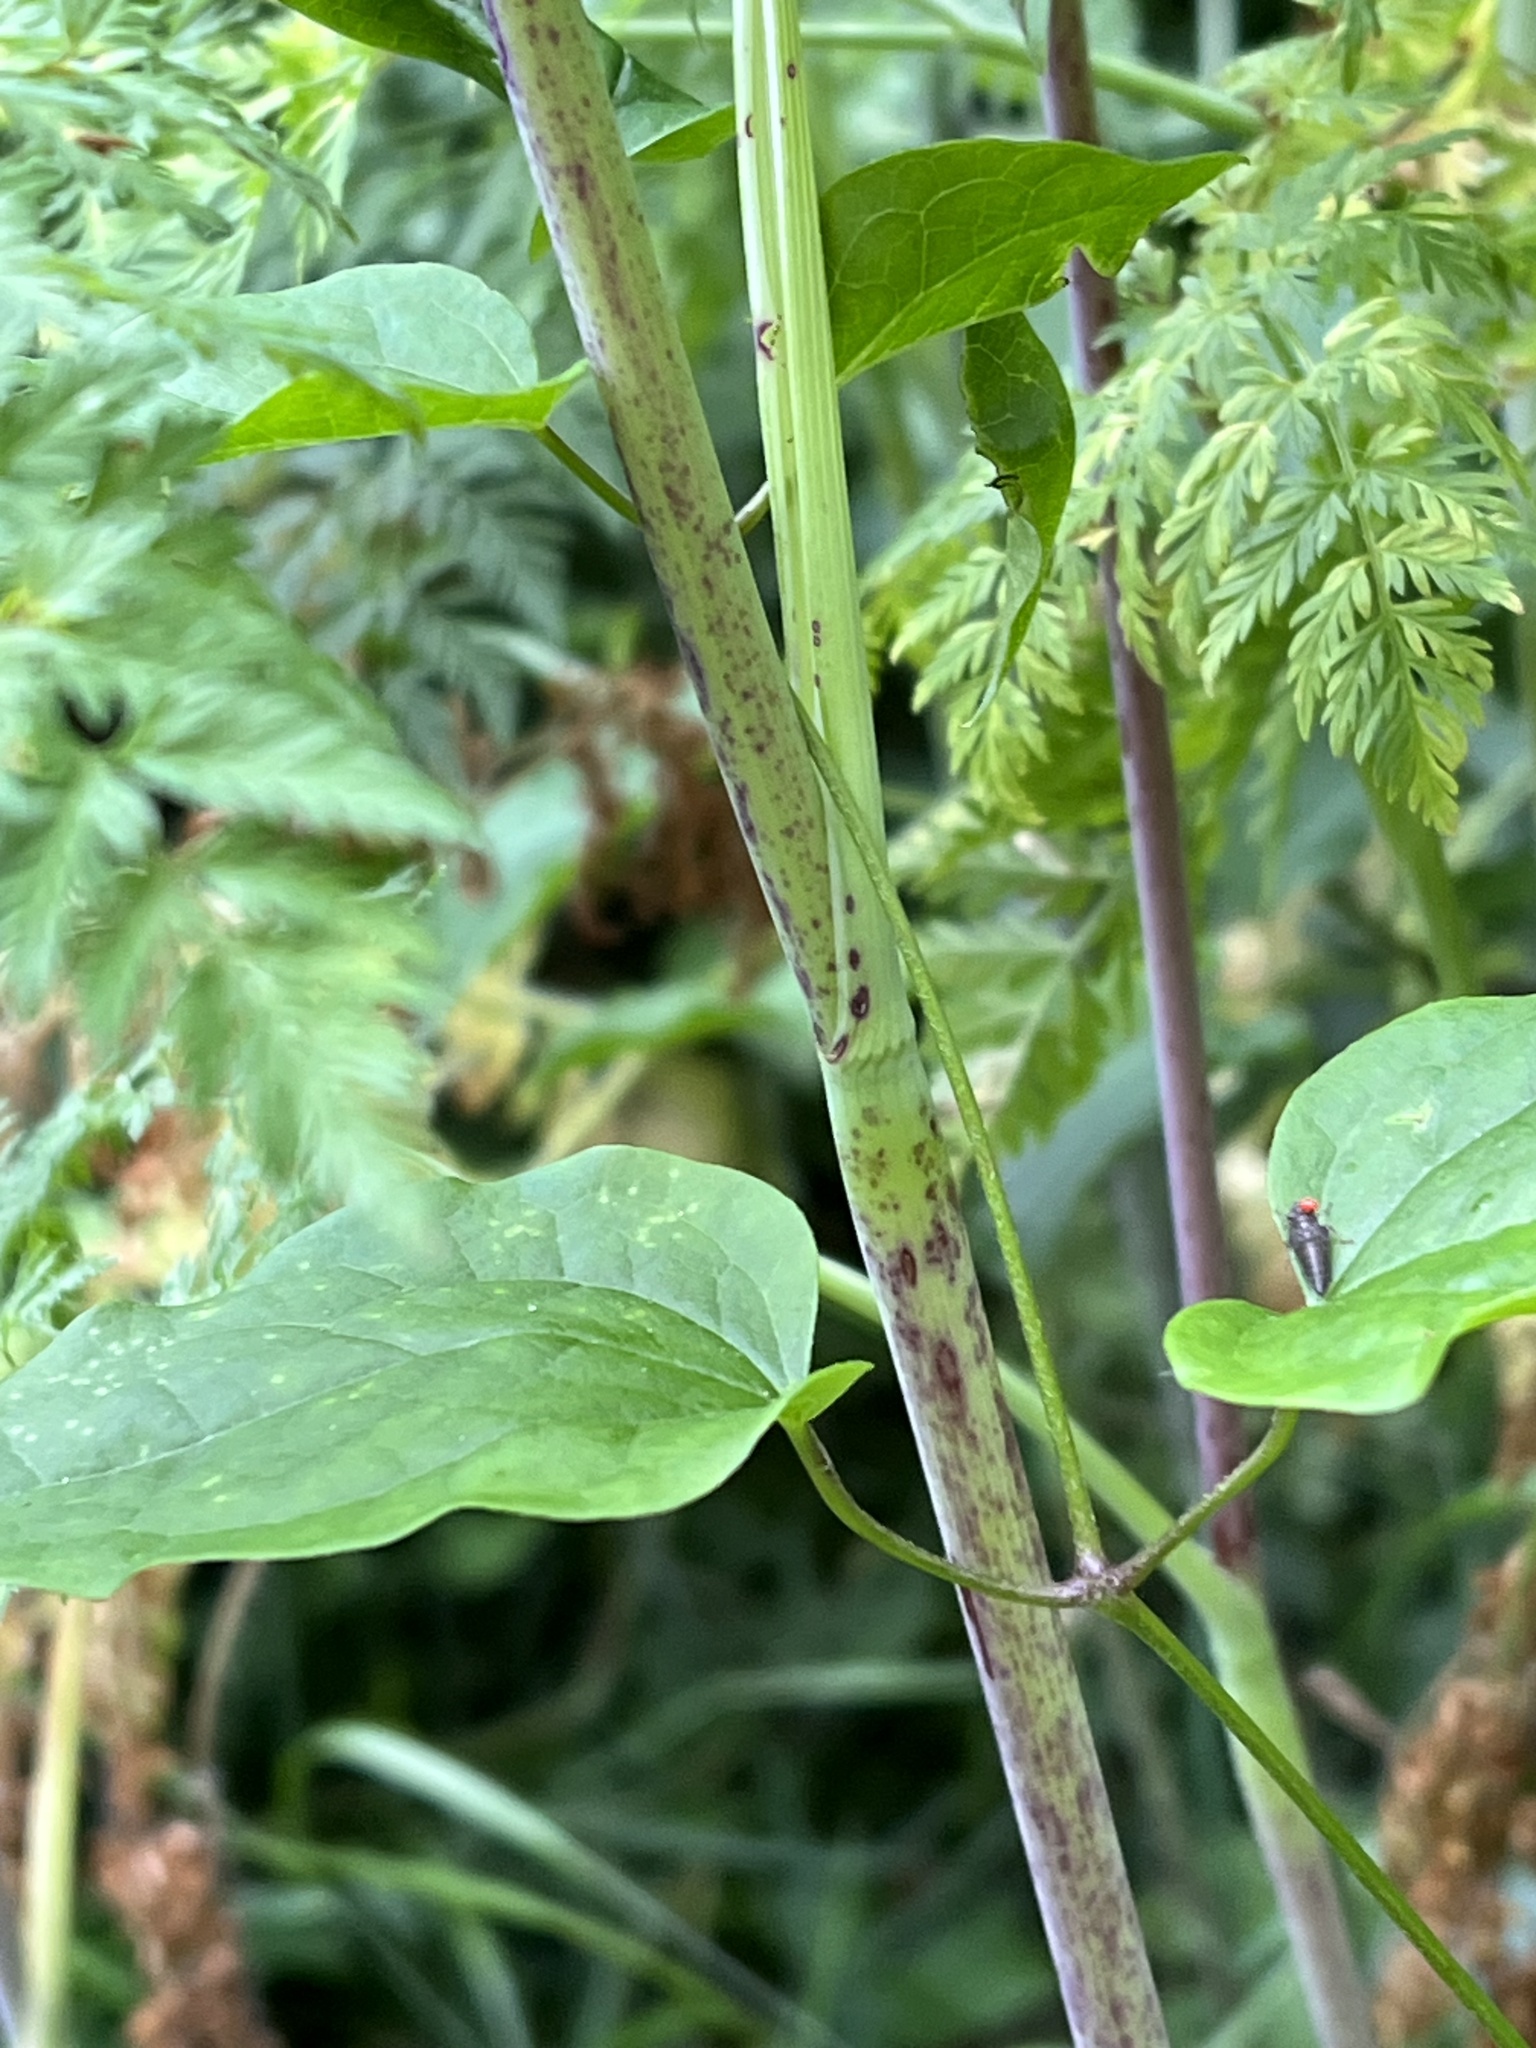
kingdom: Plantae
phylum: Tracheophyta
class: Magnoliopsida
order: Apiales
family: Apiaceae
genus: Conium
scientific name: Conium maculatum
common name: Hemlock
